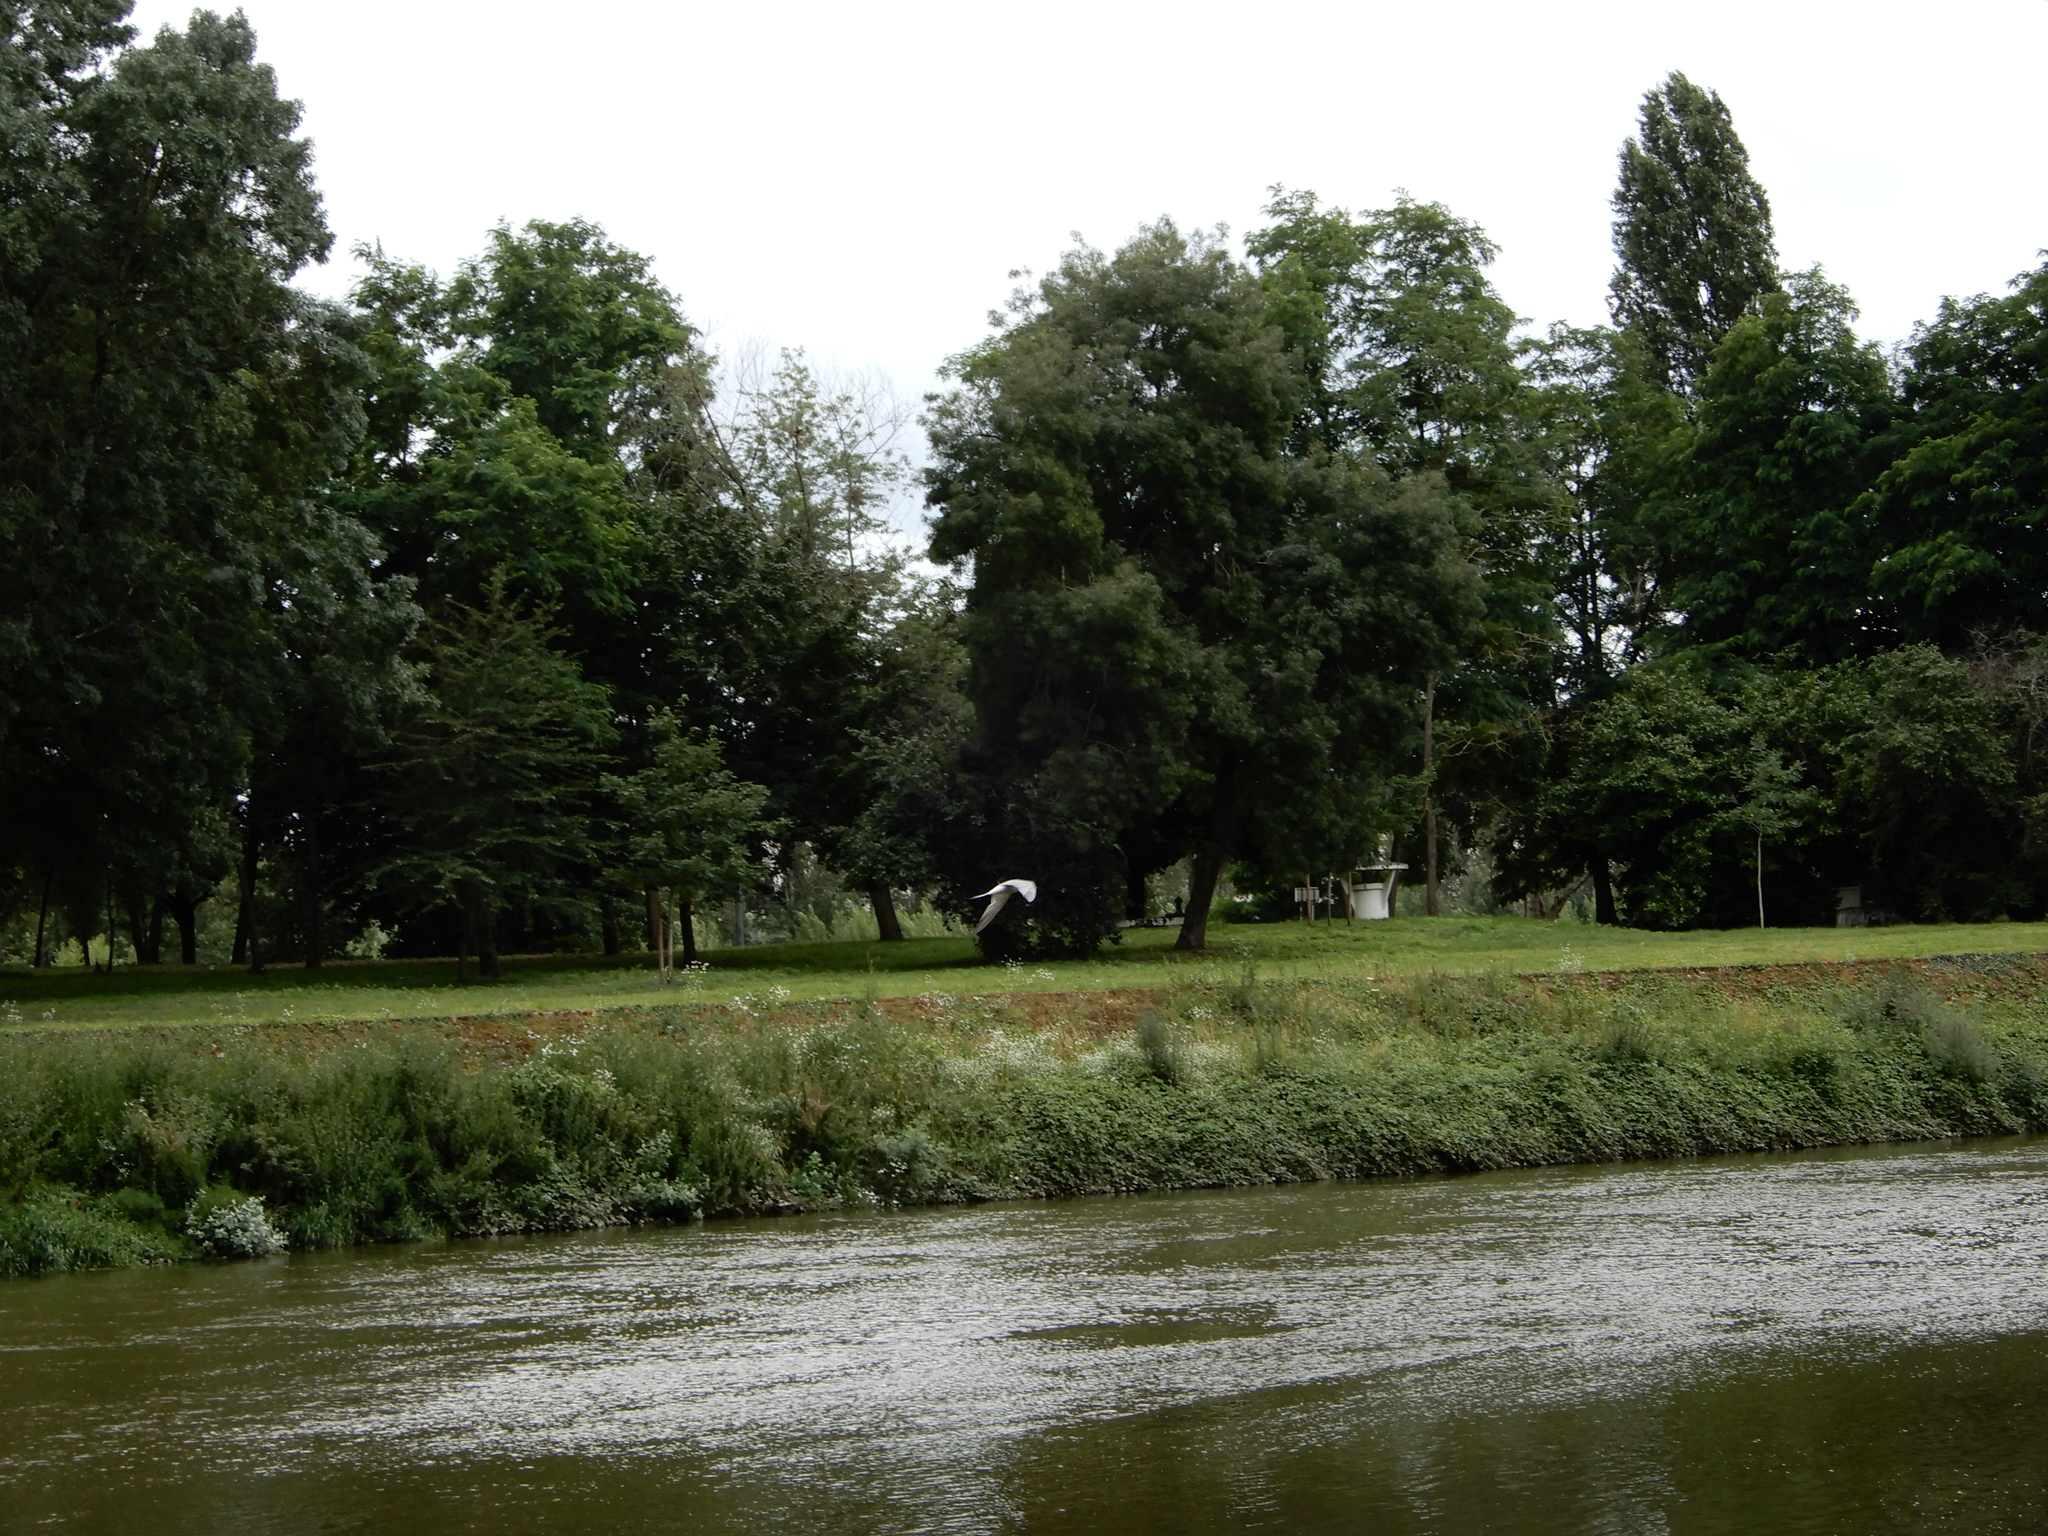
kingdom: Animalia
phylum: Chordata
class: Aves
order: Charadriiformes
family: Laridae
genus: Sterna
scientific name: Sterna hirundo
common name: Common tern
